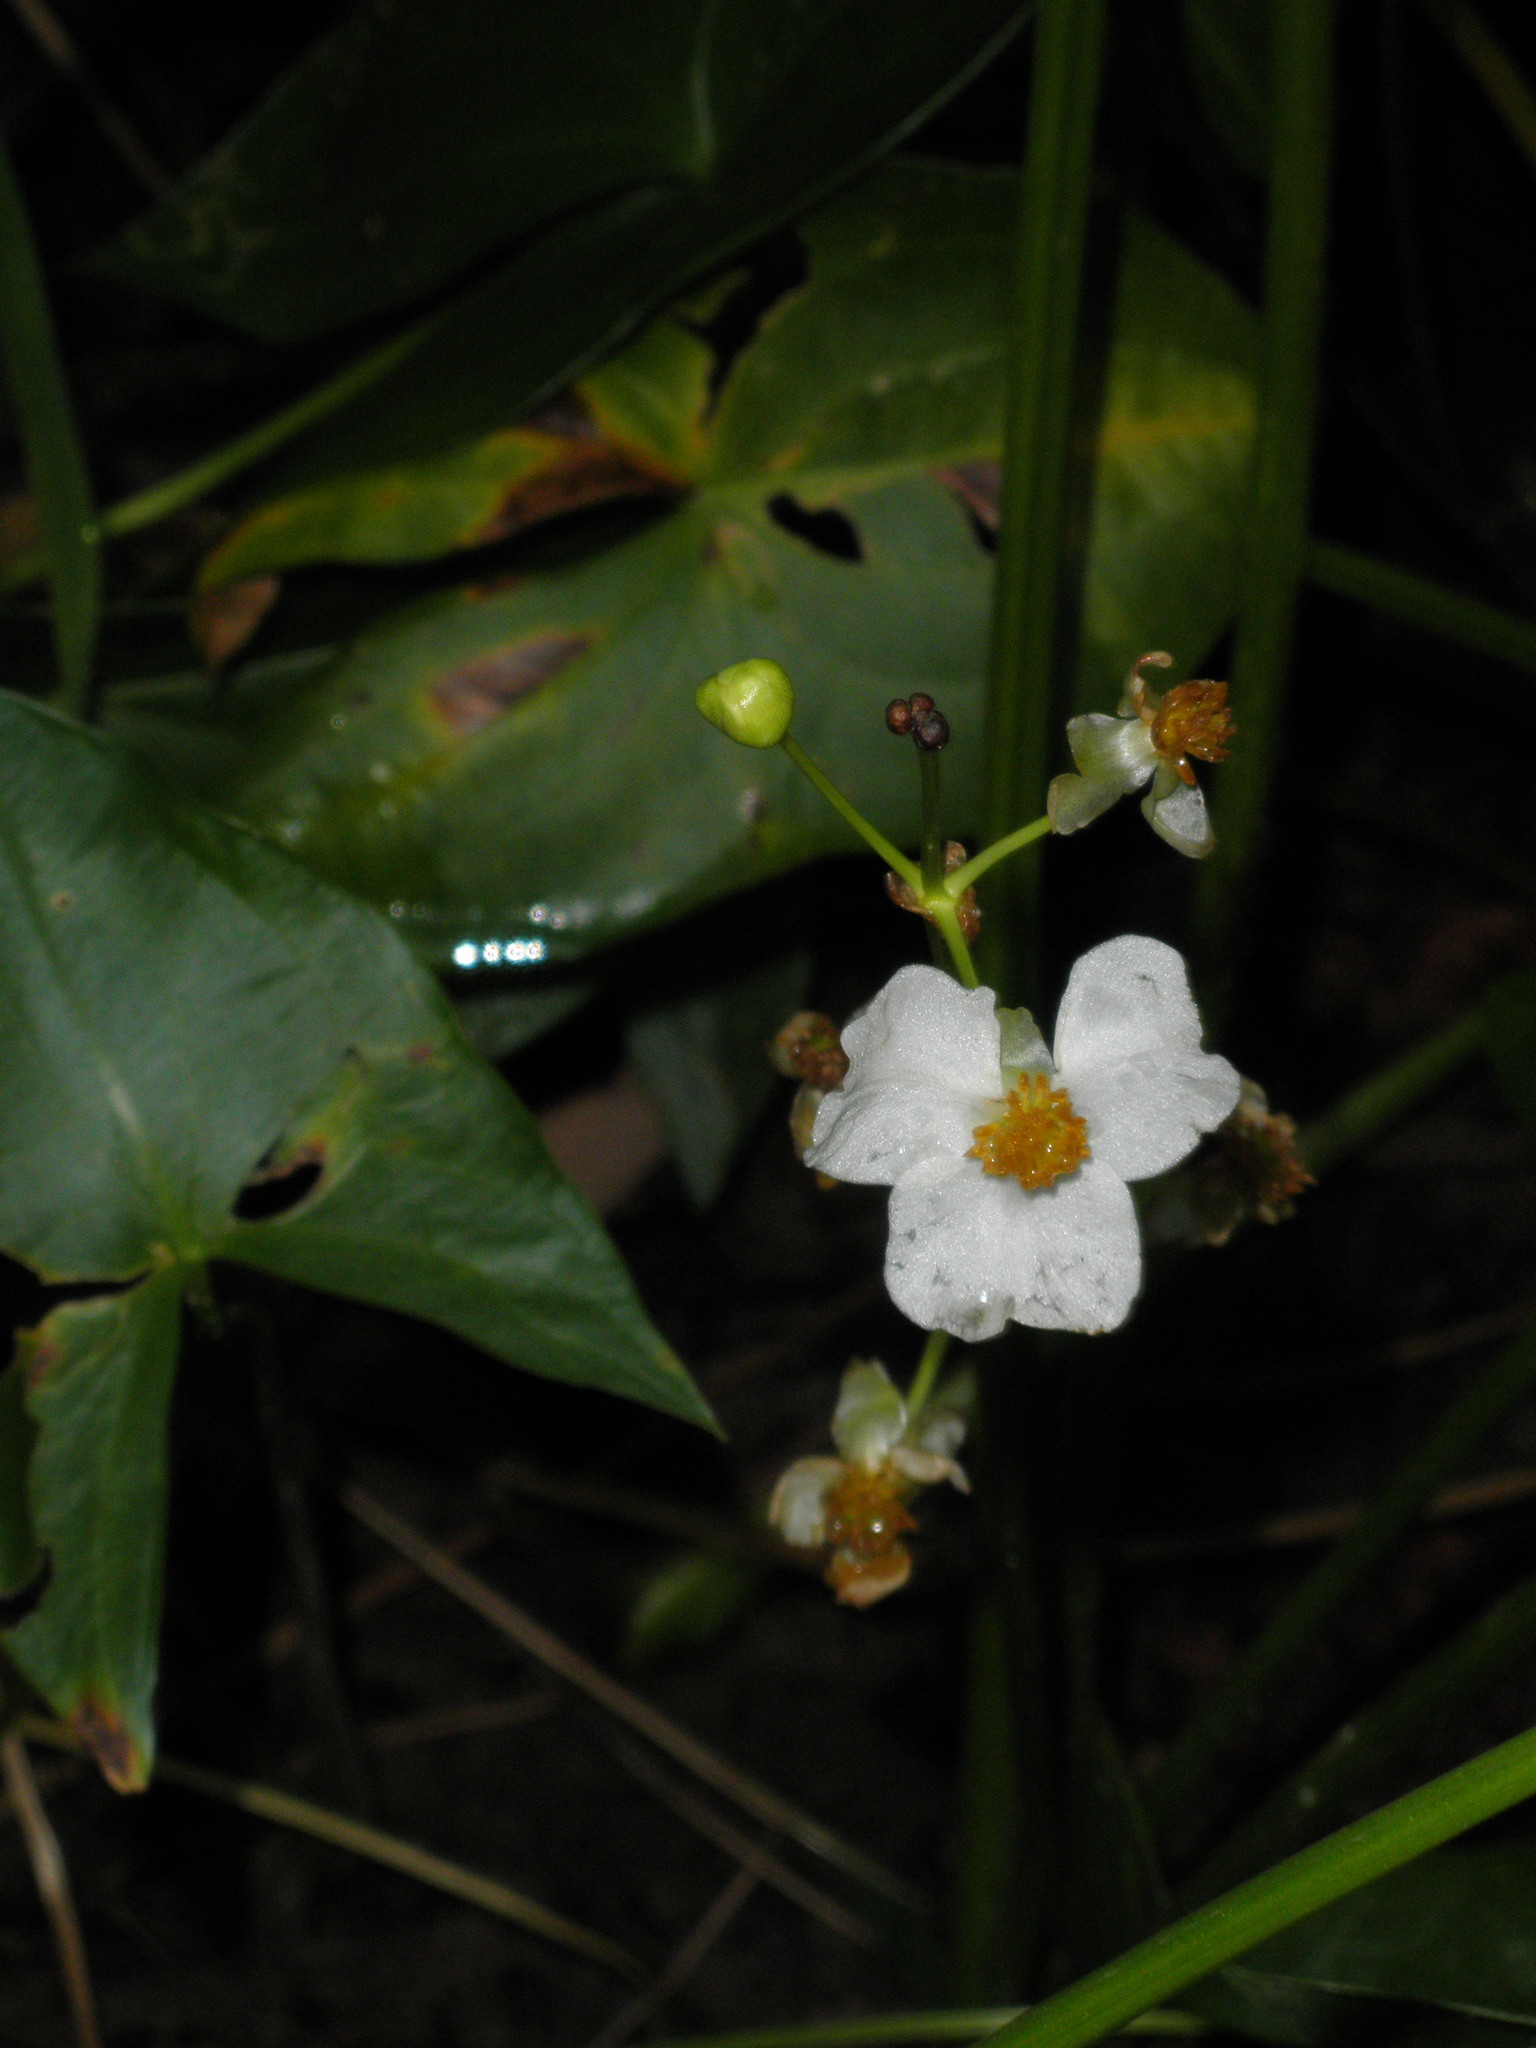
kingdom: Plantae
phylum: Tracheophyta
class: Liliopsida
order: Alismatales
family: Alismataceae
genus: Sagittaria
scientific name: Sagittaria latifolia
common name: Duck-potato
